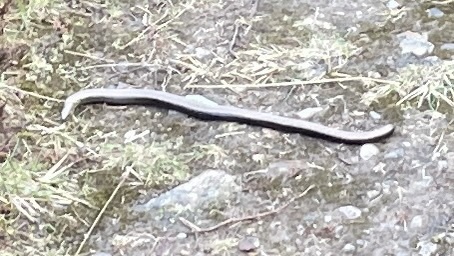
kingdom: Animalia
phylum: Chordata
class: Squamata
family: Anguidae
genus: Anguis
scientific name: Anguis fragilis
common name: Slow worm
